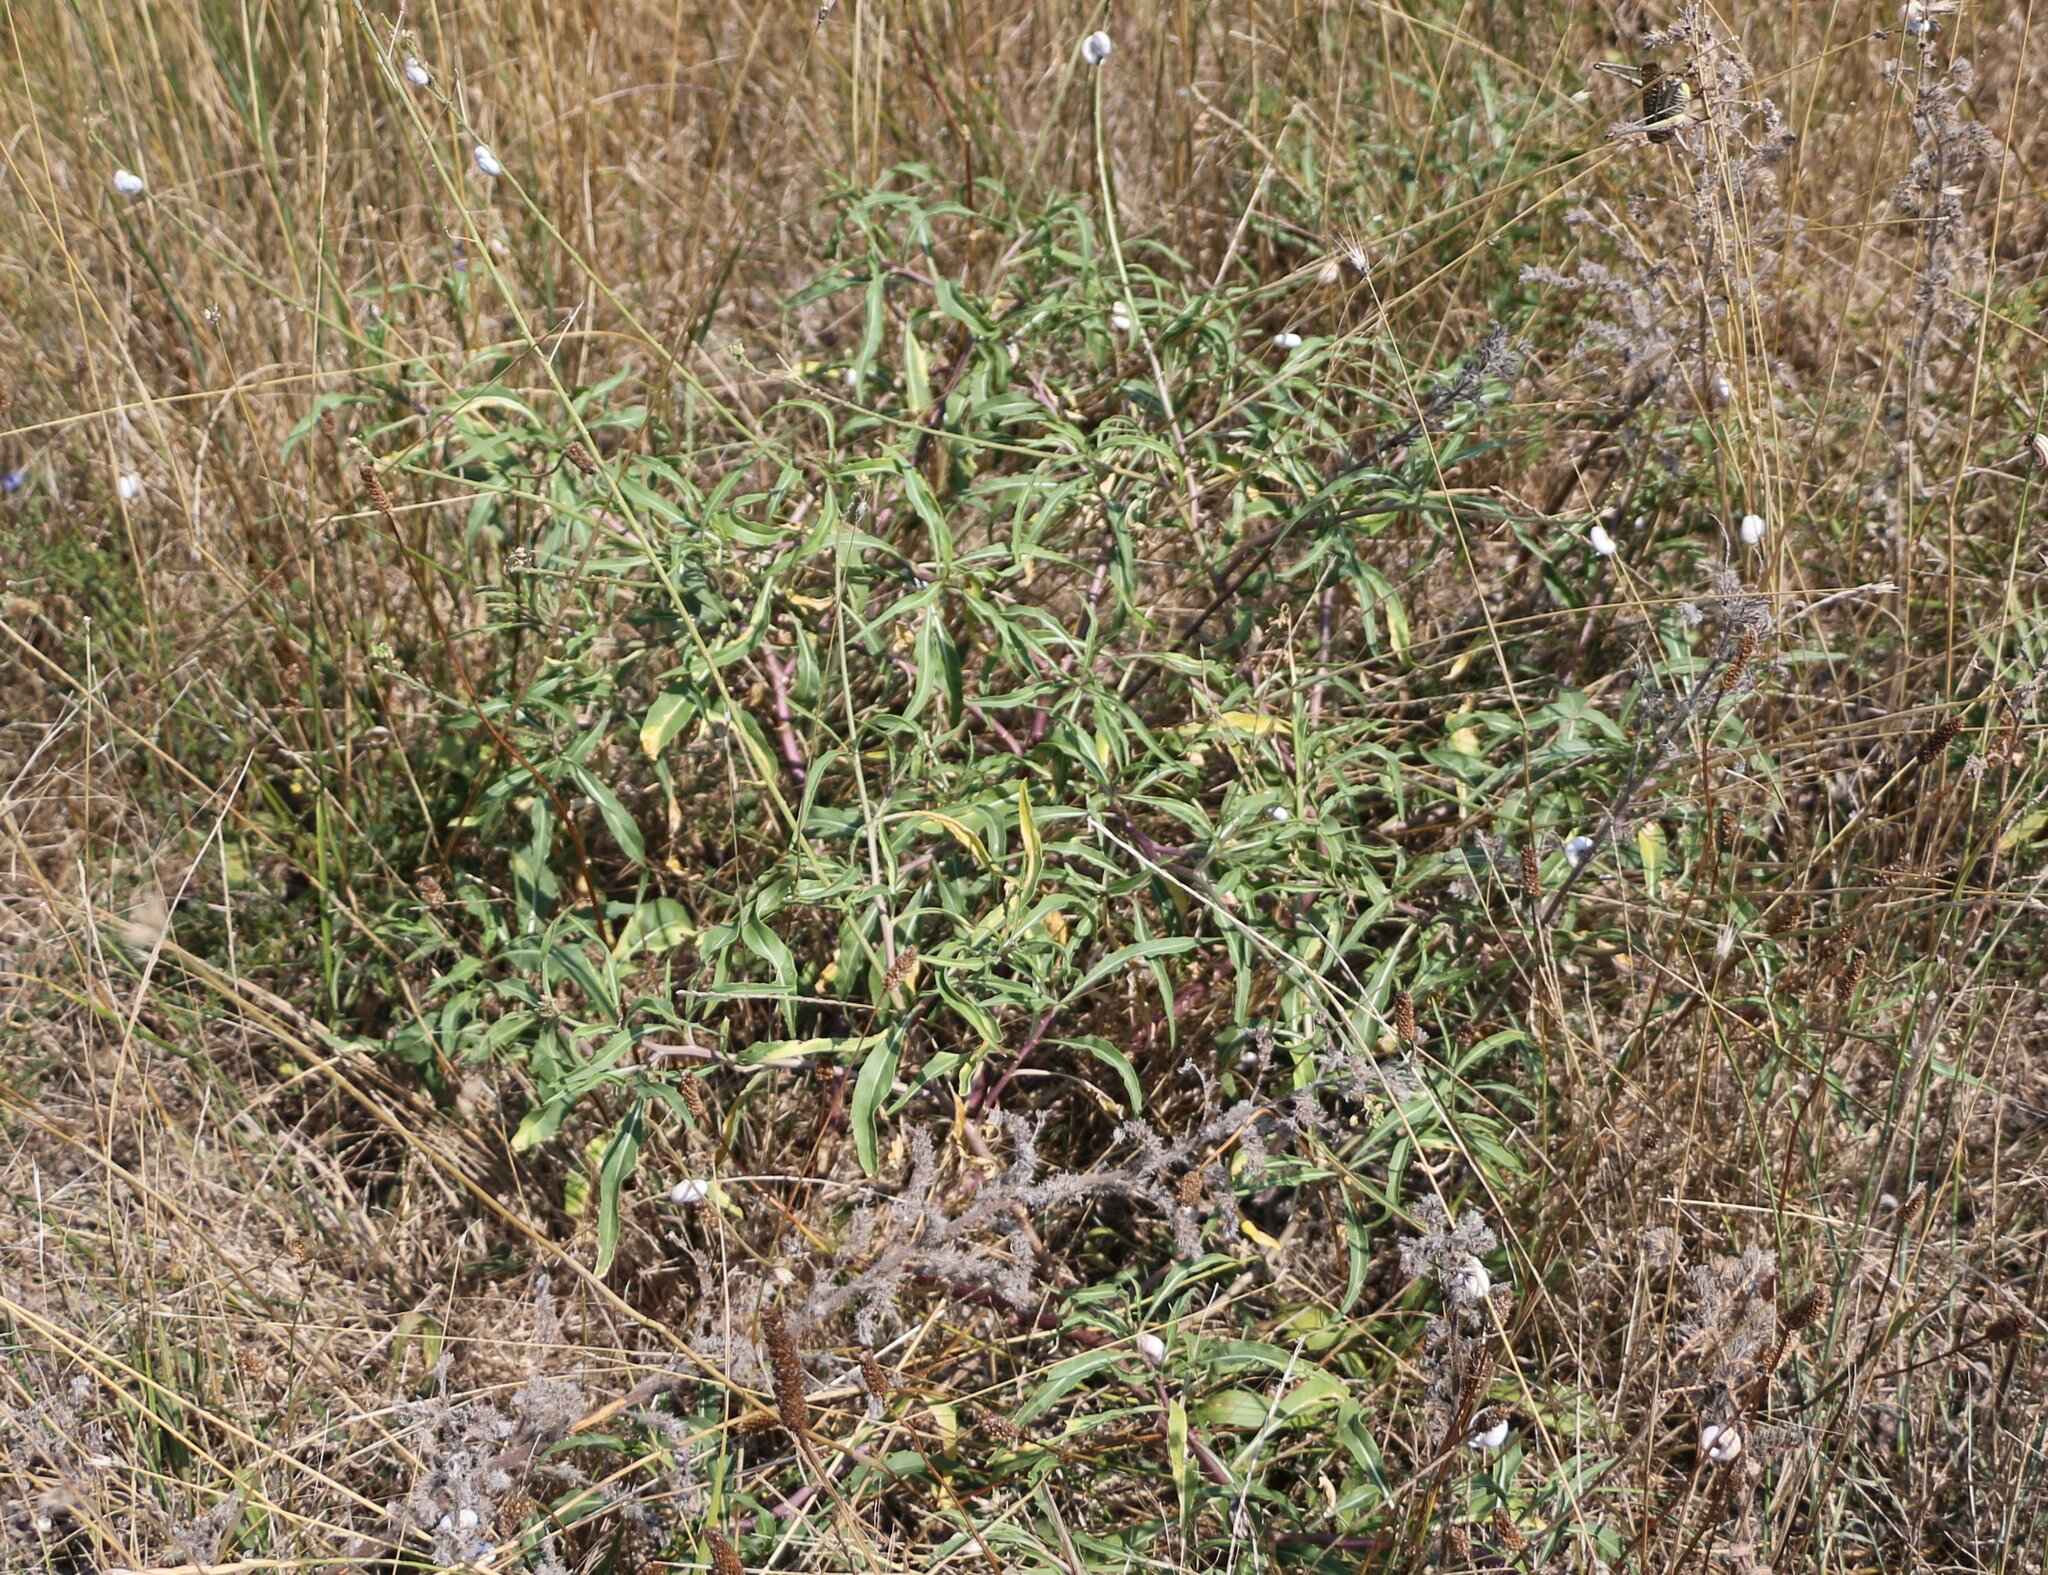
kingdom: Plantae
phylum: Tracheophyta
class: Magnoliopsida
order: Brassicales
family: Brassicaceae
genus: Diplotaxis
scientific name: Diplotaxis tenuifolia
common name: Perennial wall-rocket
